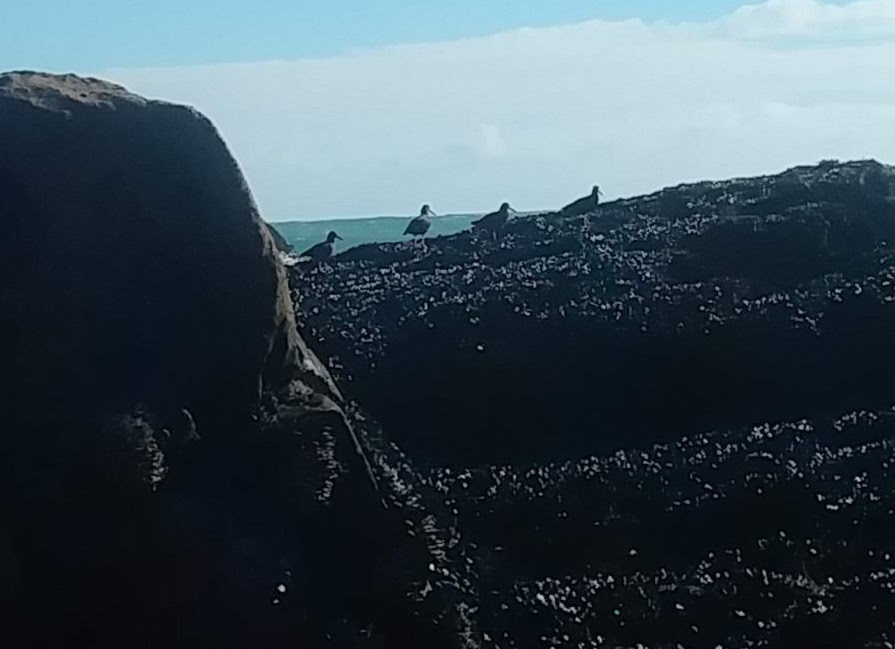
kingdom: Animalia
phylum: Chordata
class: Aves
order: Charadriiformes
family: Haematopodidae
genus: Haematopus
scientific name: Haematopus bachmani
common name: Black oystercatcher
